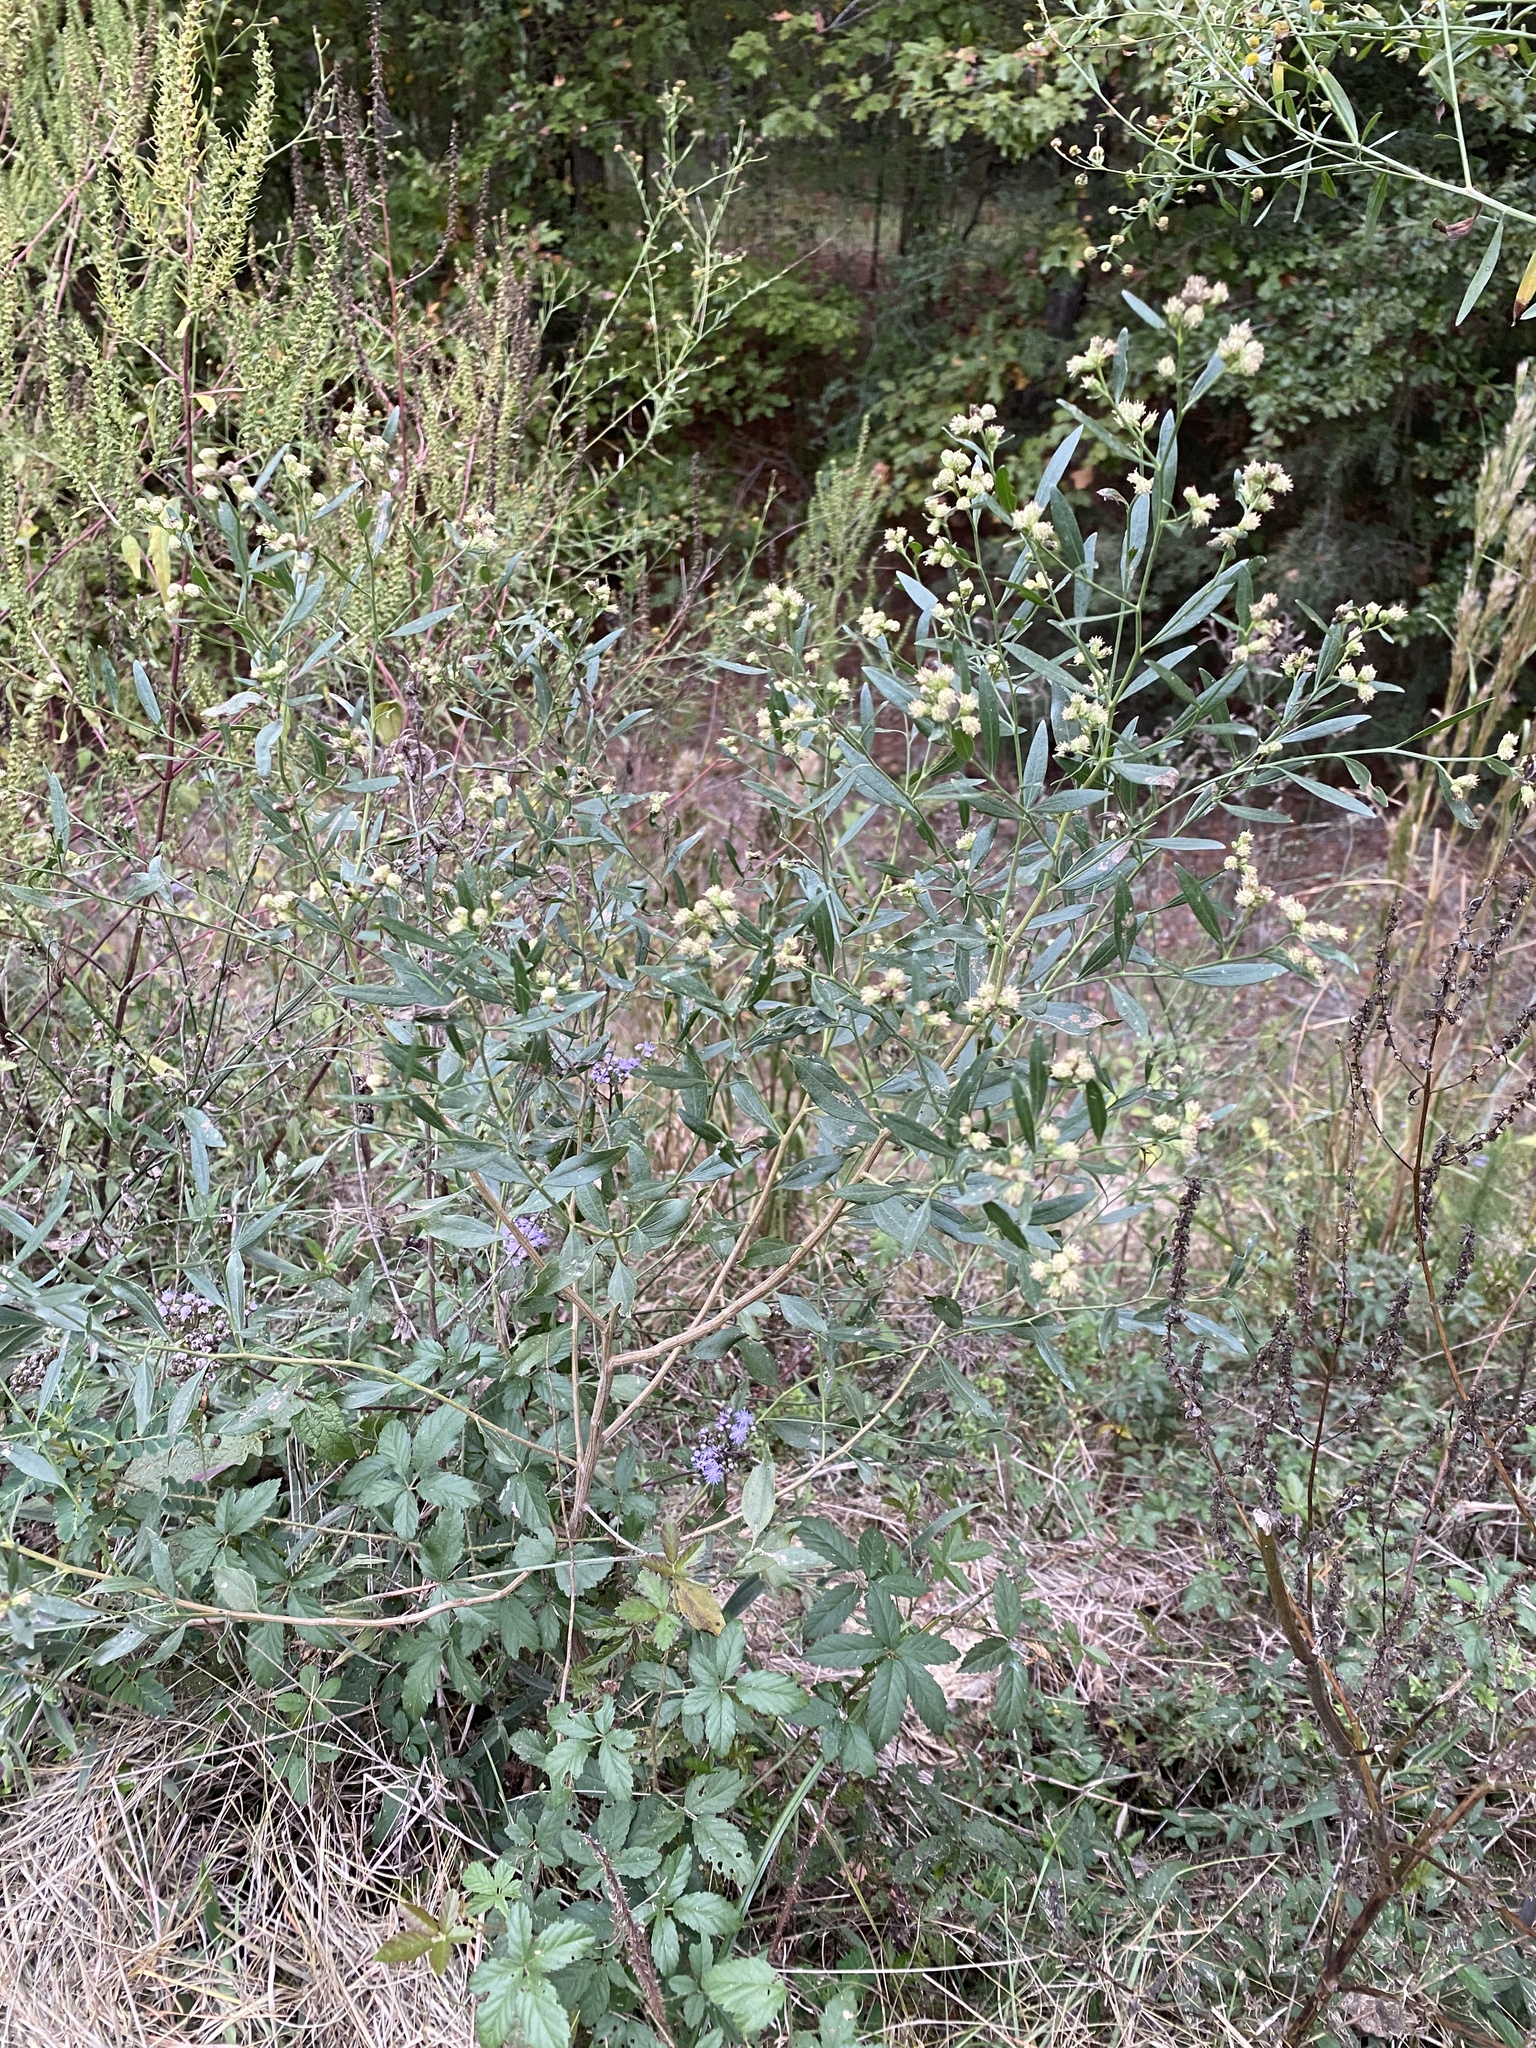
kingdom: Plantae
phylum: Tracheophyta
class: Magnoliopsida
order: Asterales
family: Asteraceae
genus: Baccharis
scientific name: Baccharis halimifolia
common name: Eastern baccharis
